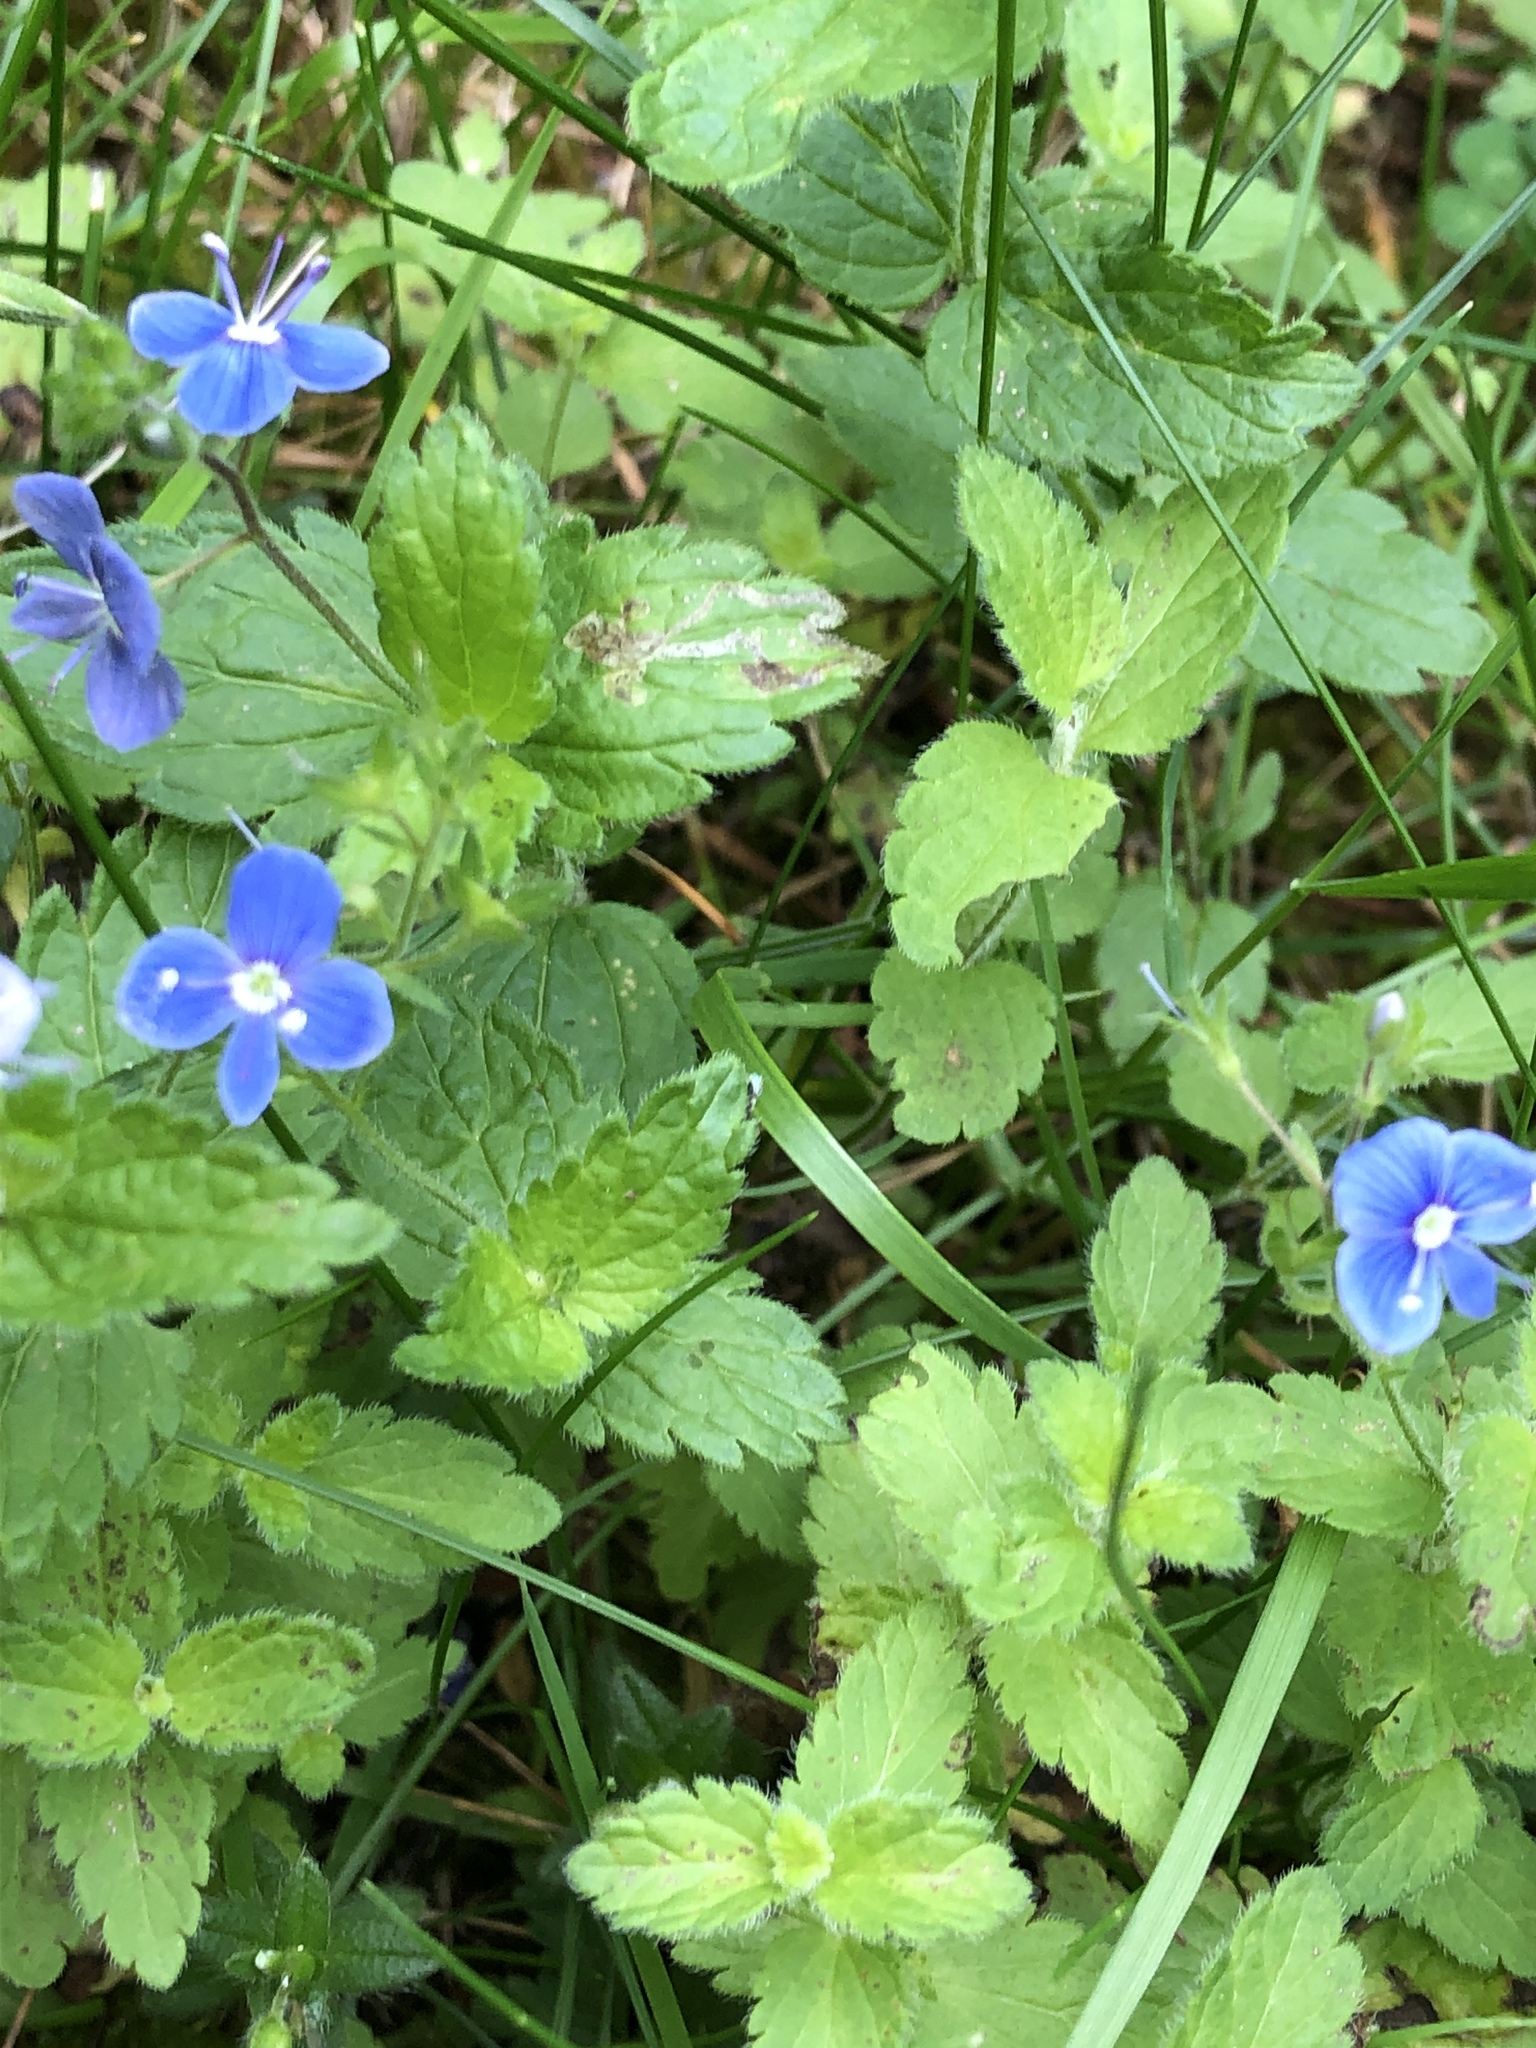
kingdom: Plantae
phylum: Tracheophyta
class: Magnoliopsida
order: Lamiales
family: Plantaginaceae
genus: Veronica
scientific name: Veronica chamaedrys
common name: Germander speedwell
